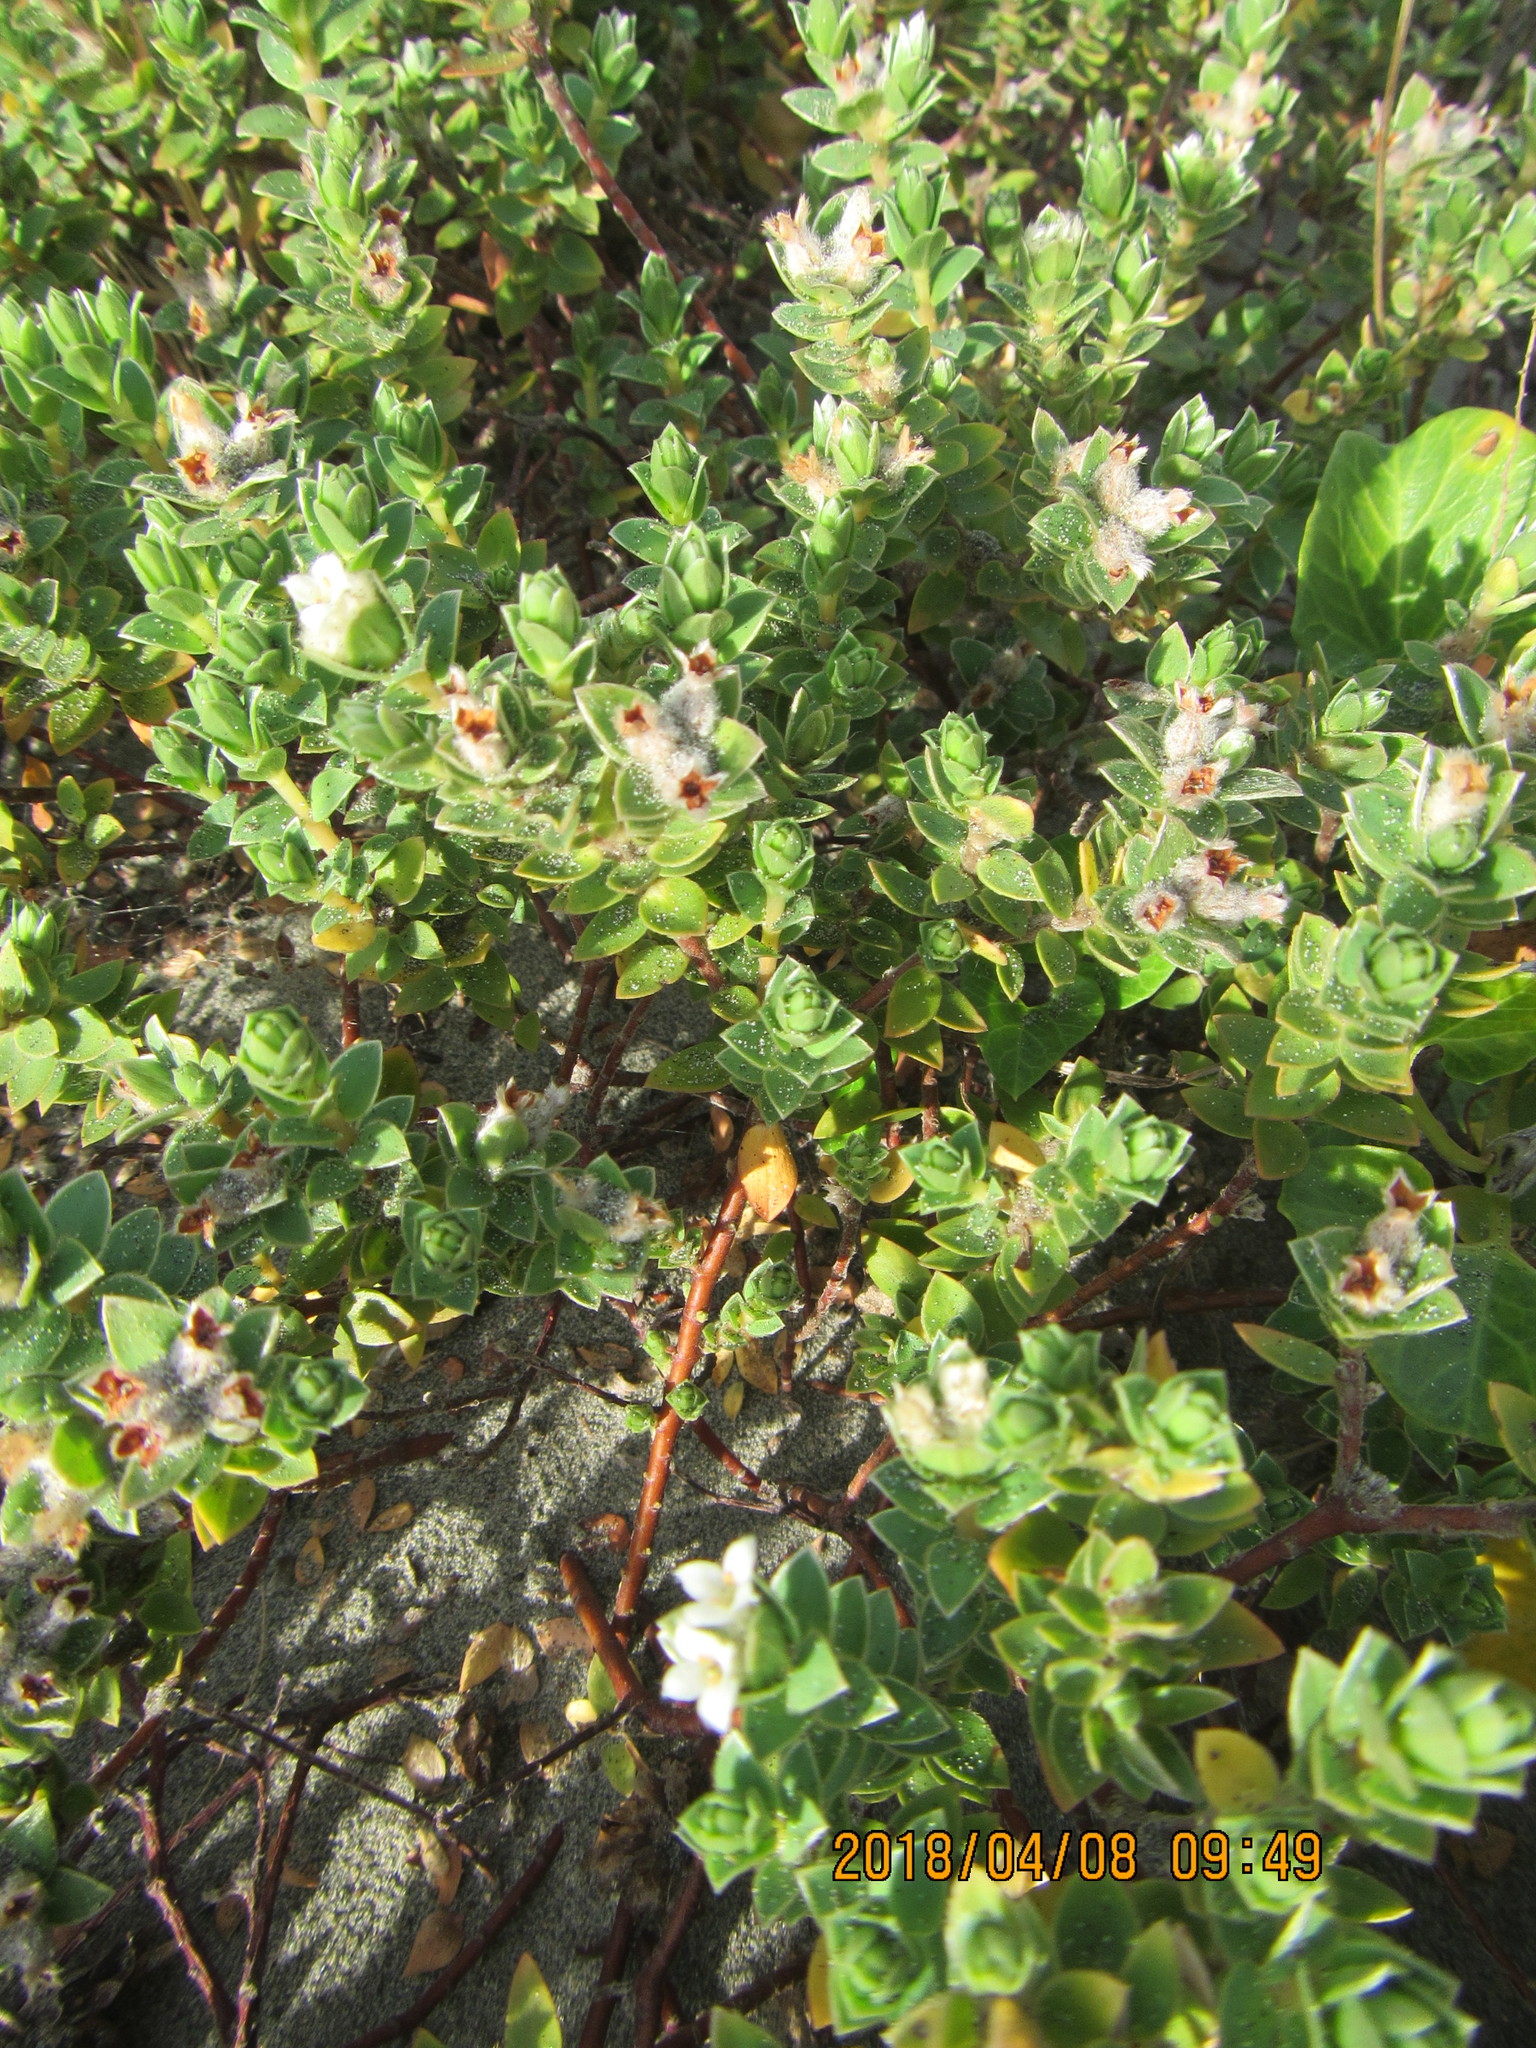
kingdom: Plantae
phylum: Tracheophyta
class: Magnoliopsida
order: Malvales
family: Thymelaeaceae
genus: Pimelea
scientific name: Pimelea villosa
